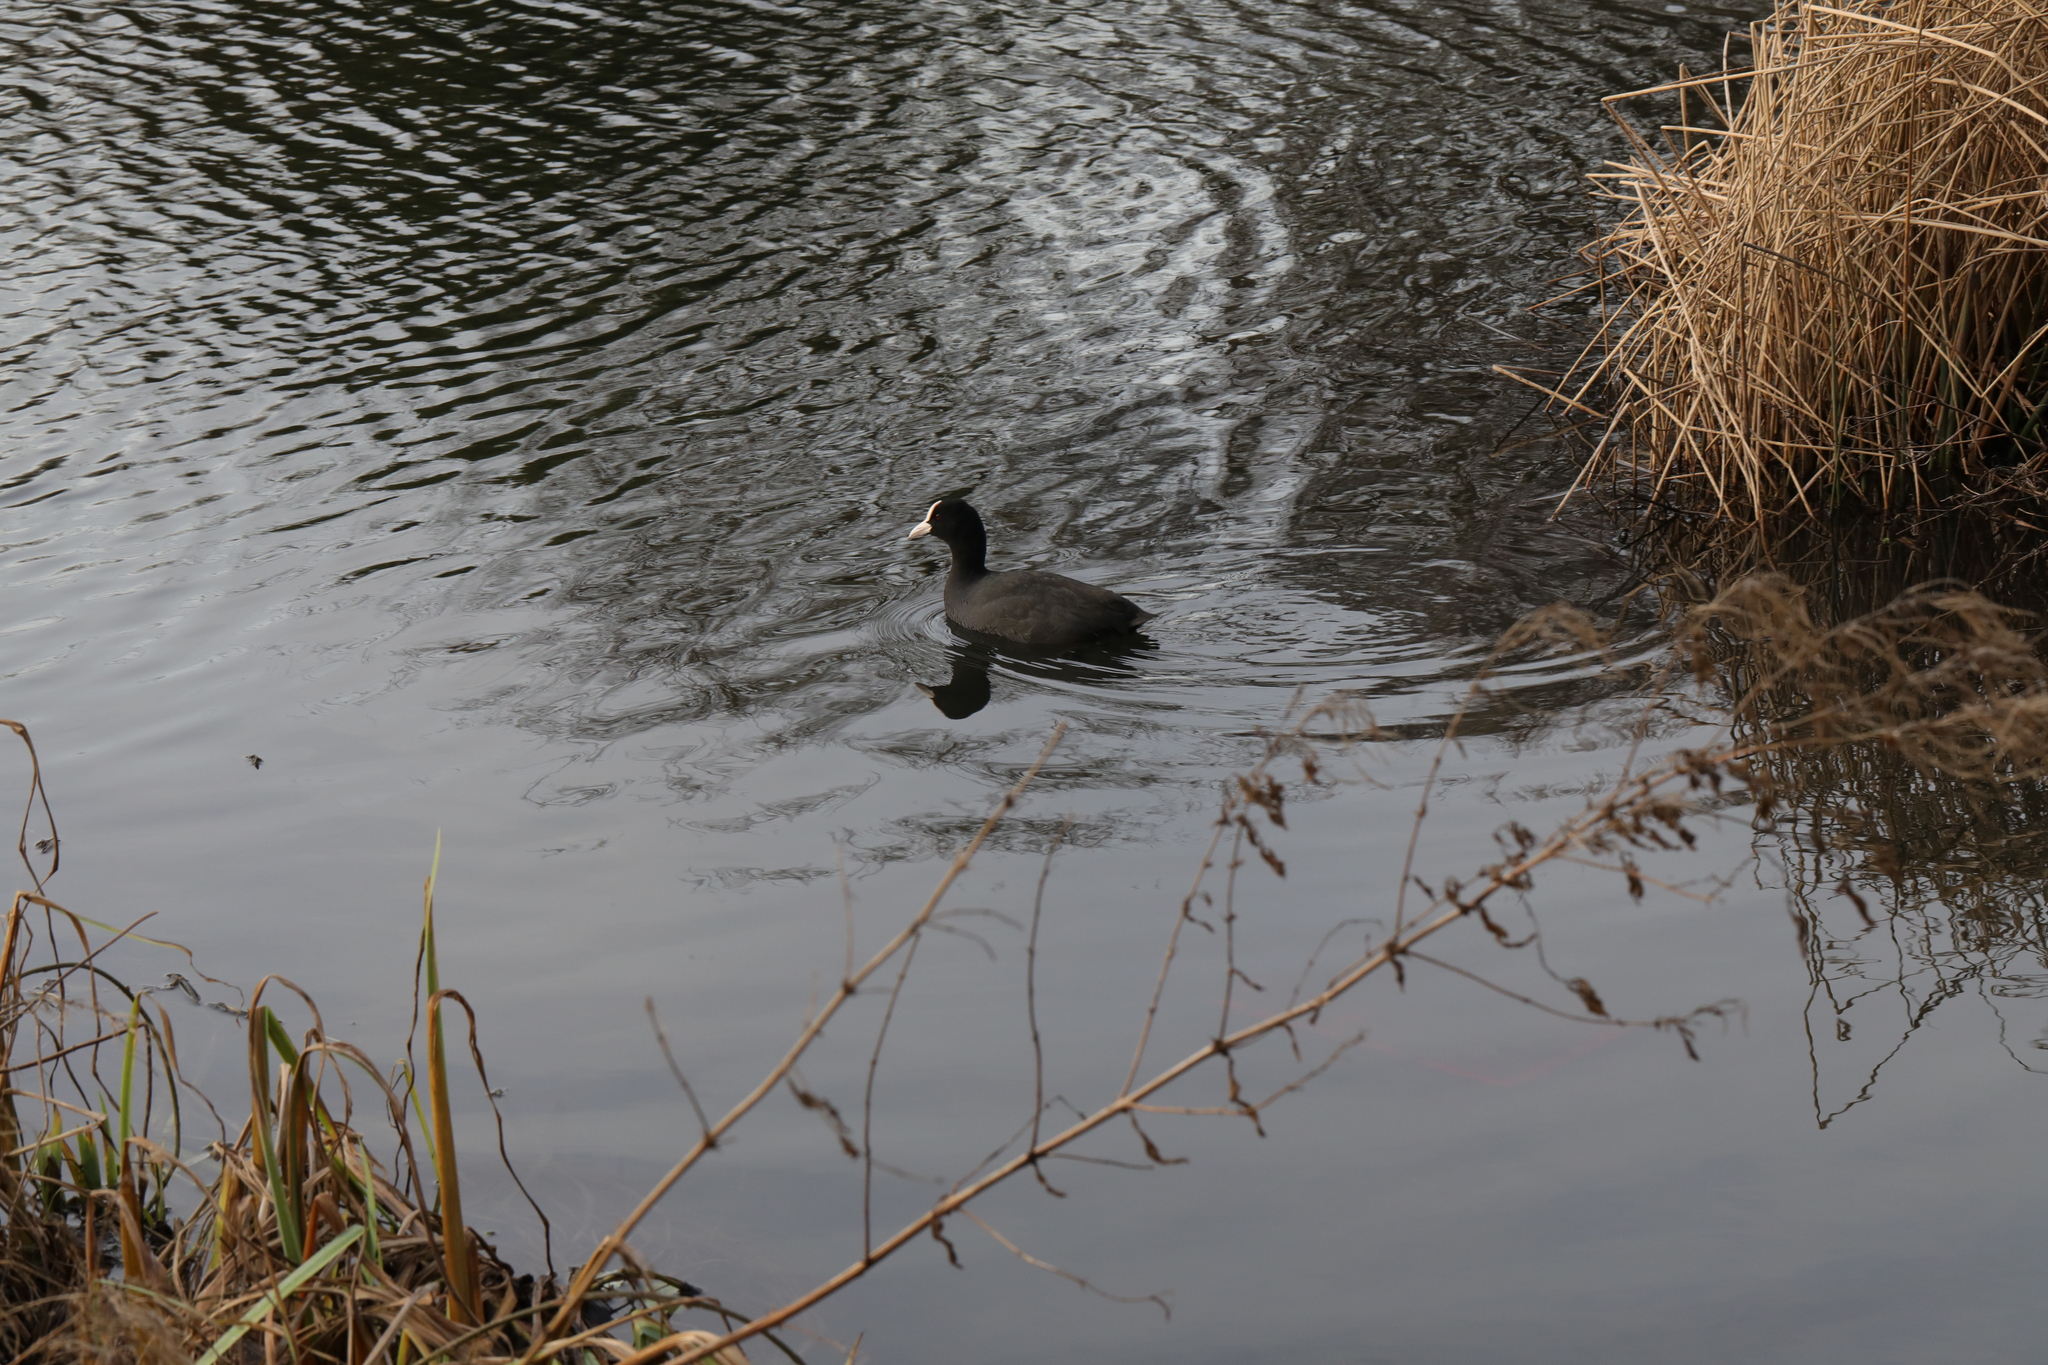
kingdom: Animalia
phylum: Chordata
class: Aves
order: Gruiformes
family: Rallidae
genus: Fulica
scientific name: Fulica atra
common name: Eurasian coot
